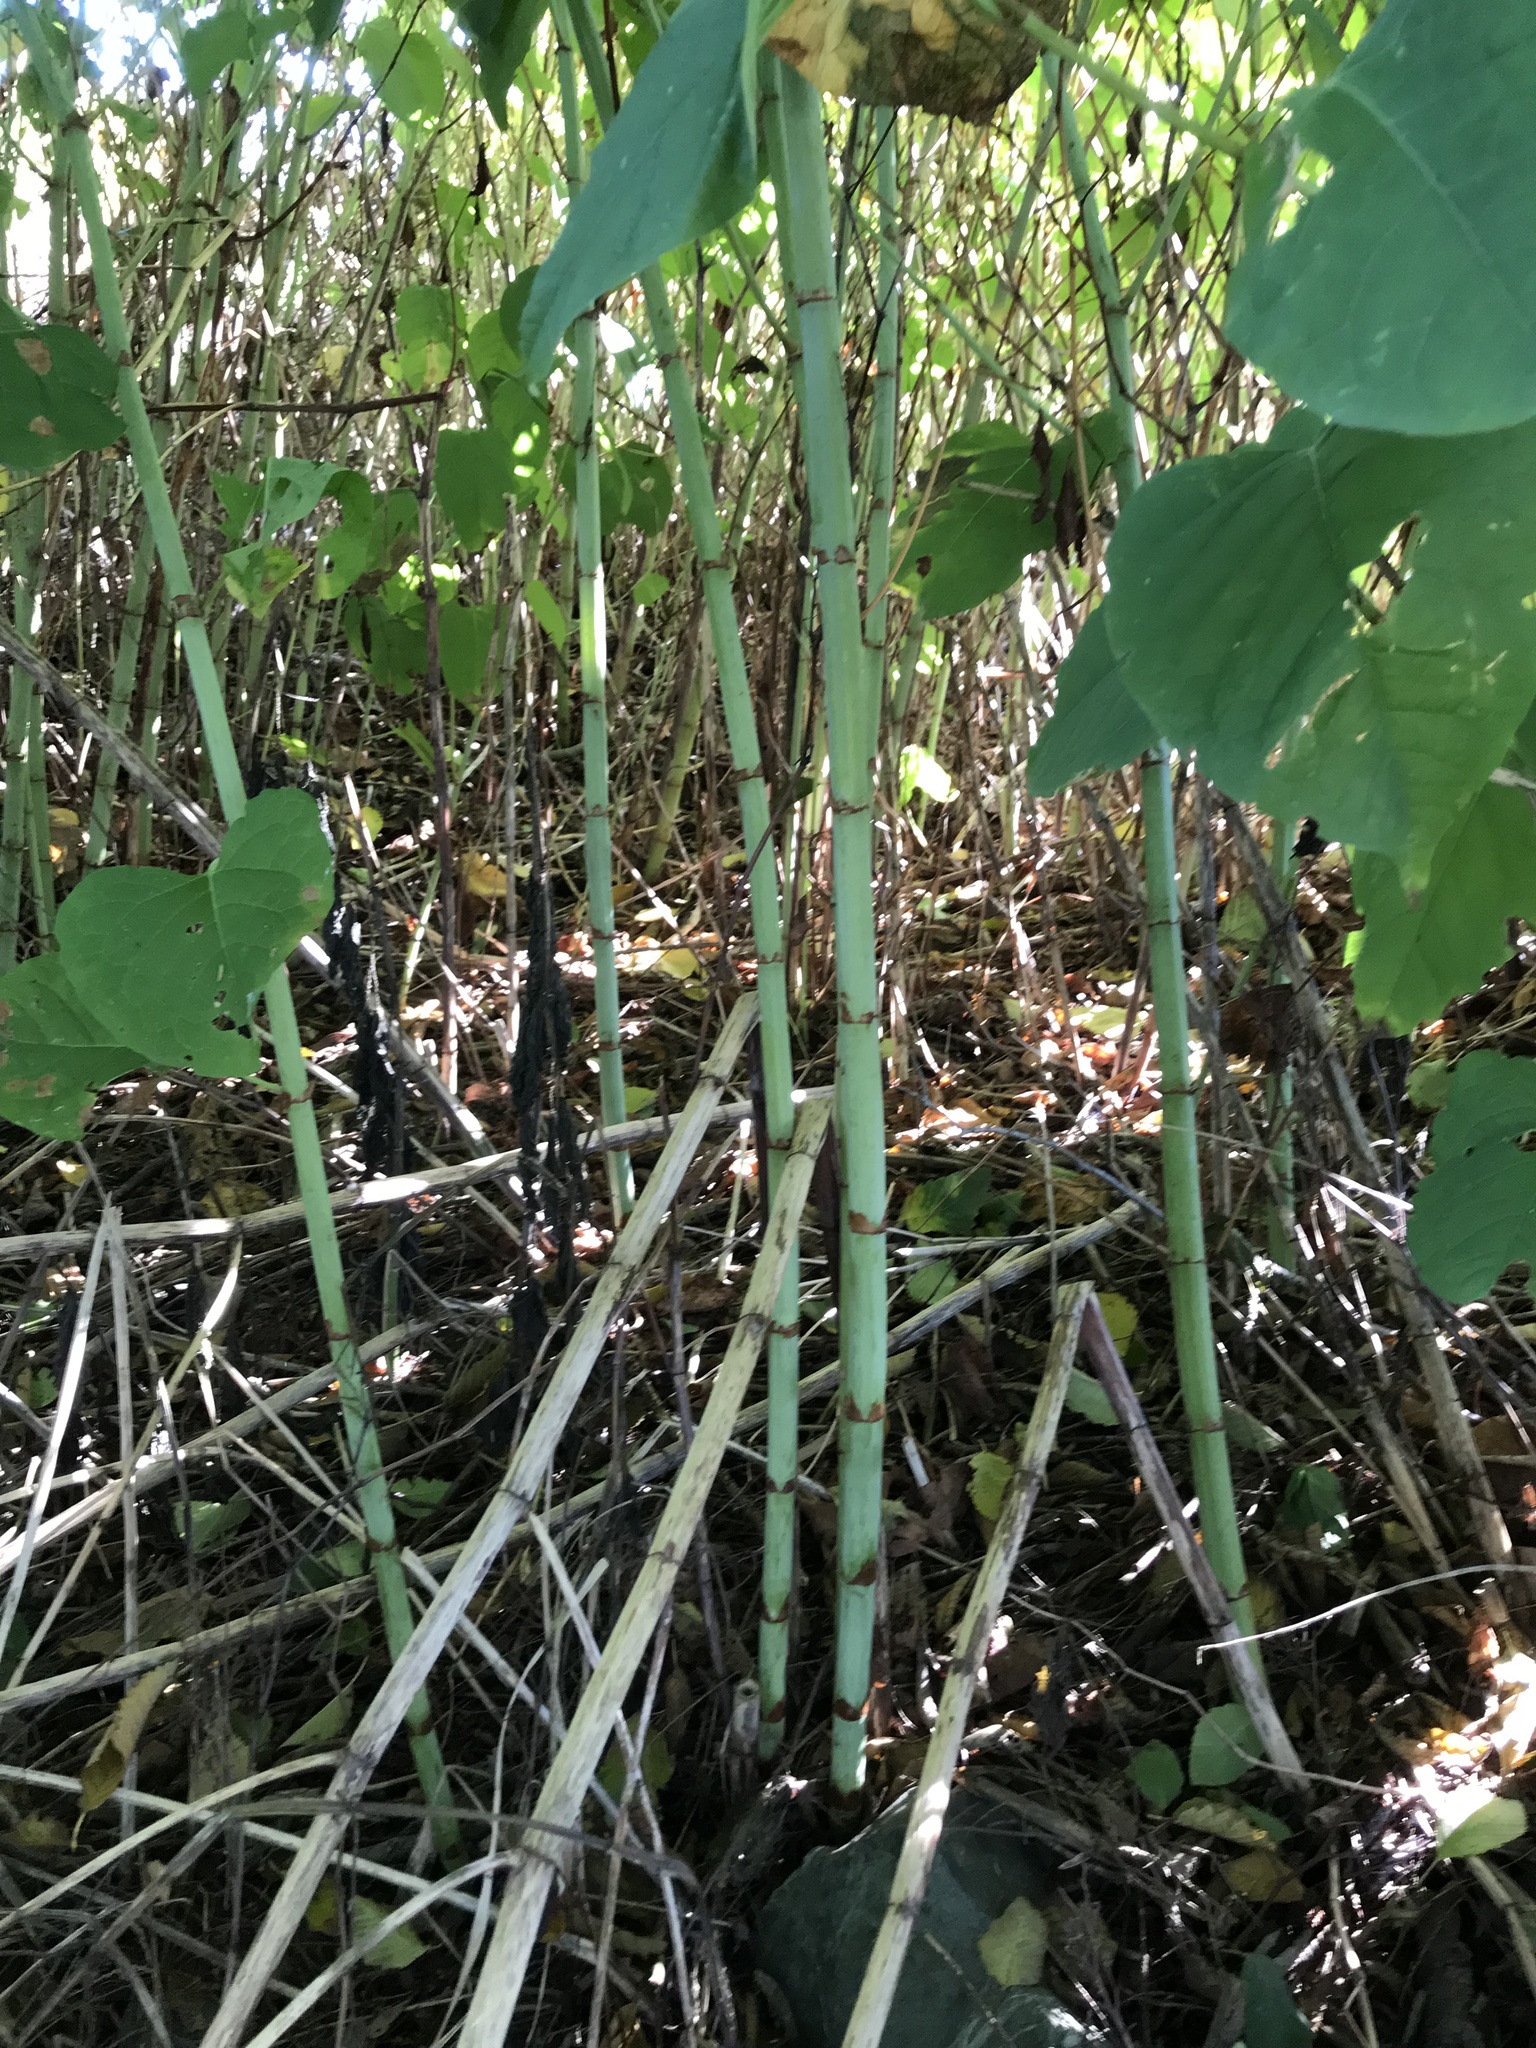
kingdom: Plantae
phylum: Tracheophyta
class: Magnoliopsida
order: Caryophyllales
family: Polygonaceae
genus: Reynoutria
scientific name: Reynoutria japonica
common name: Japanese knotweed
